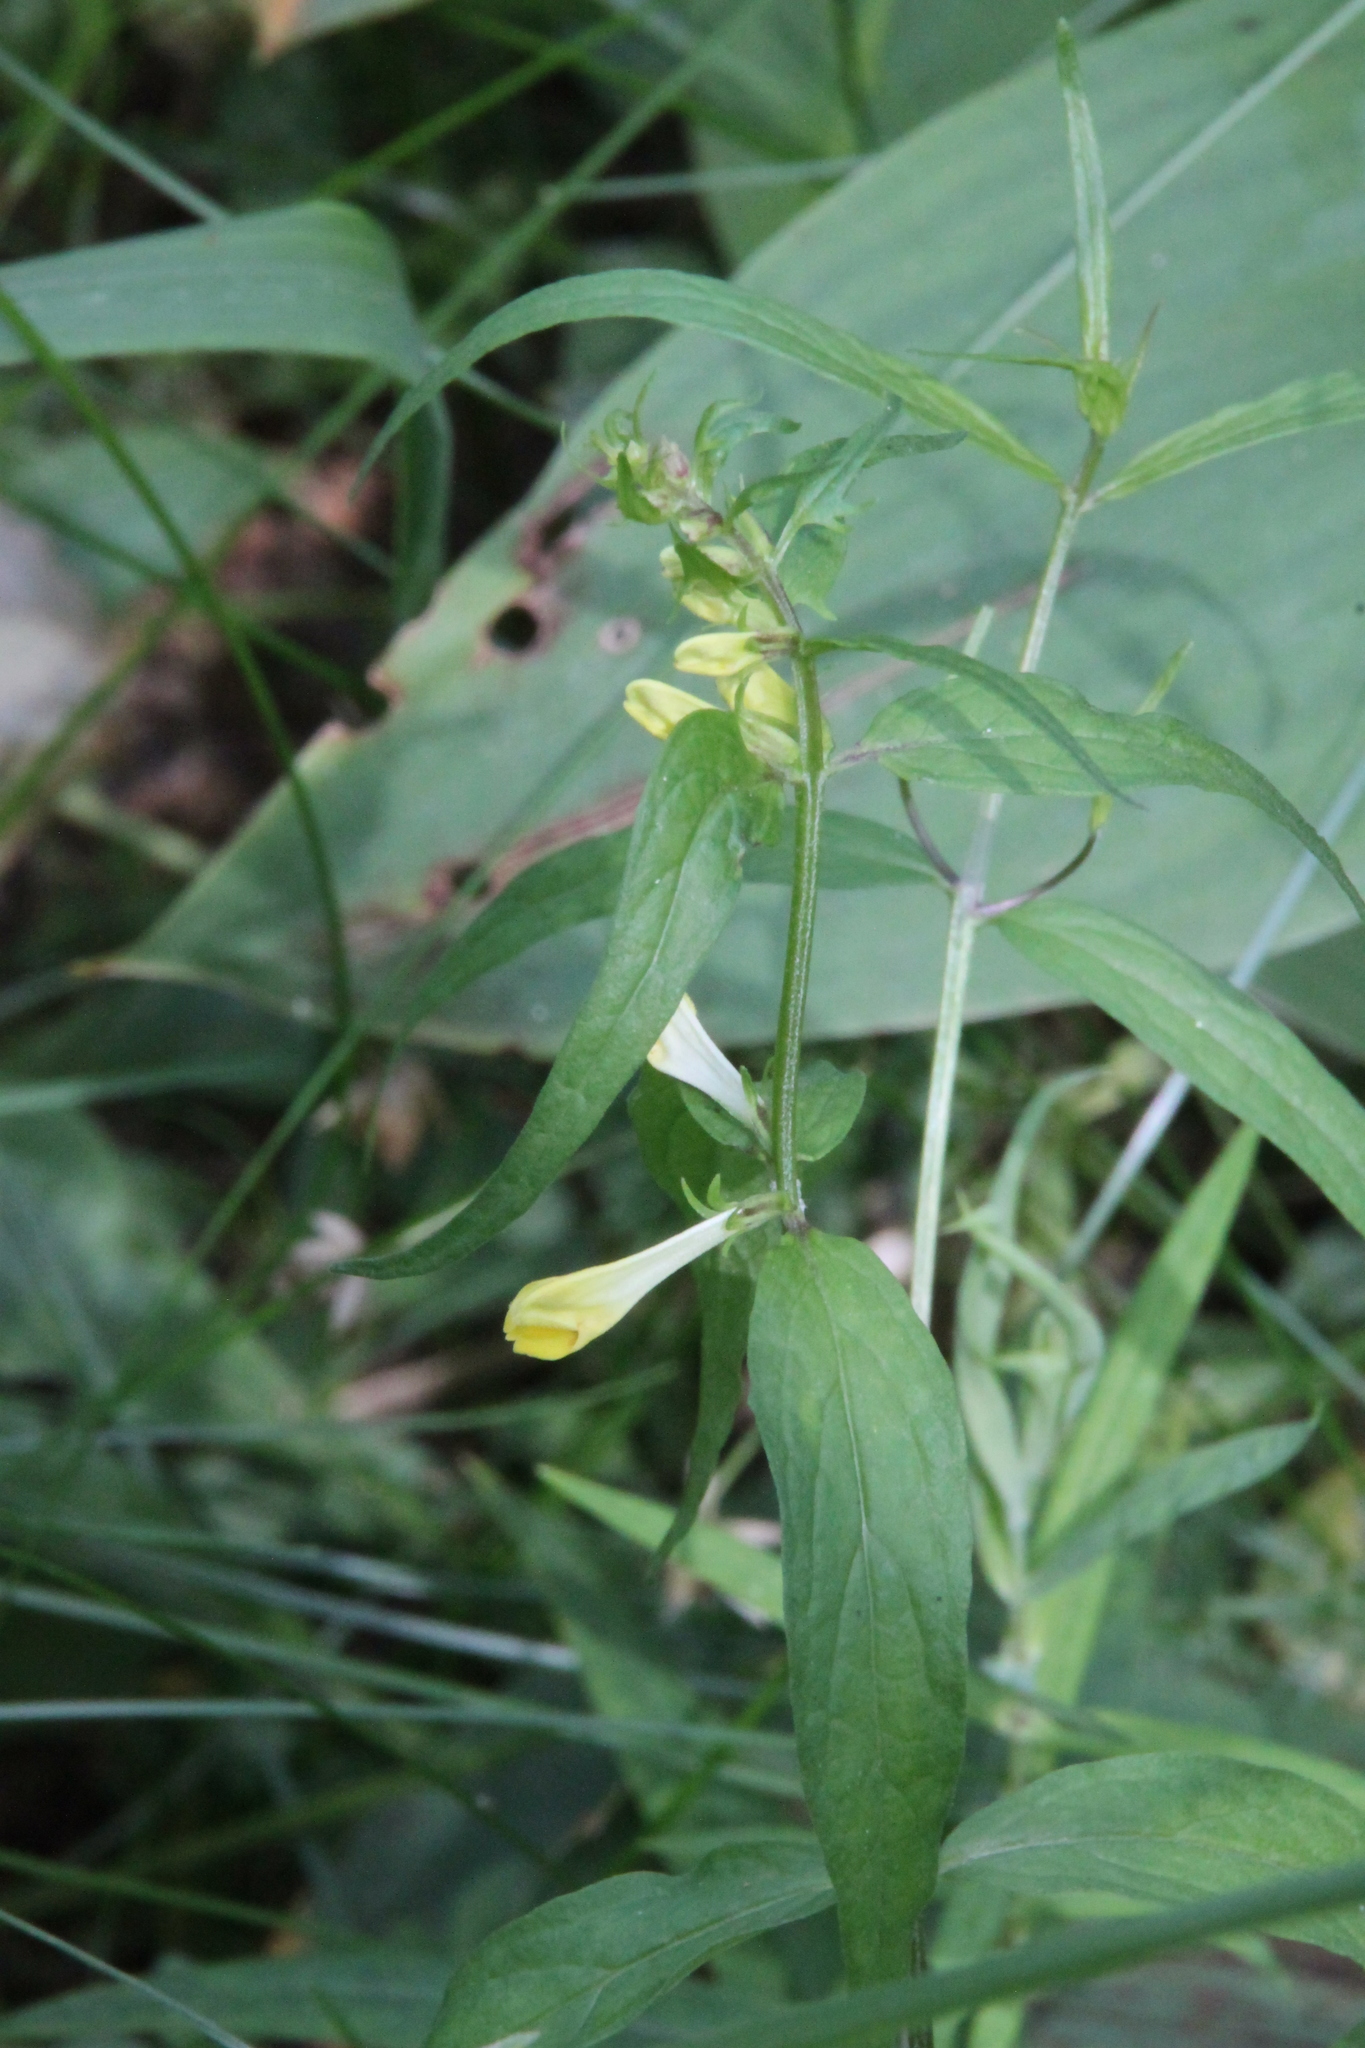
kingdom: Plantae
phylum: Tracheophyta
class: Magnoliopsida
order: Lamiales
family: Orobanchaceae
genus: Melampyrum
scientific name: Melampyrum pratense
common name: Common cow-wheat
